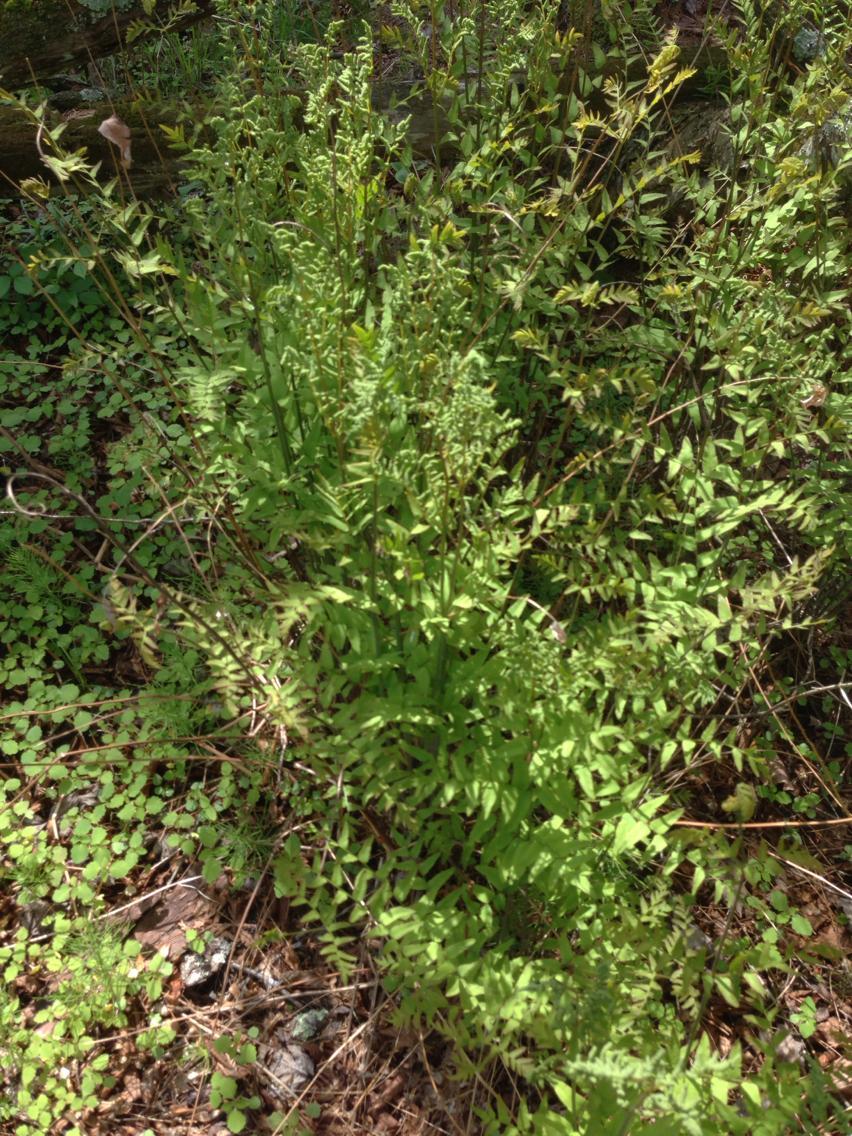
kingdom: Plantae
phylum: Tracheophyta
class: Polypodiopsida
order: Osmundales
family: Osmundaceae
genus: Osmunda
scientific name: Osmunda spectabilis
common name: American royal fern
